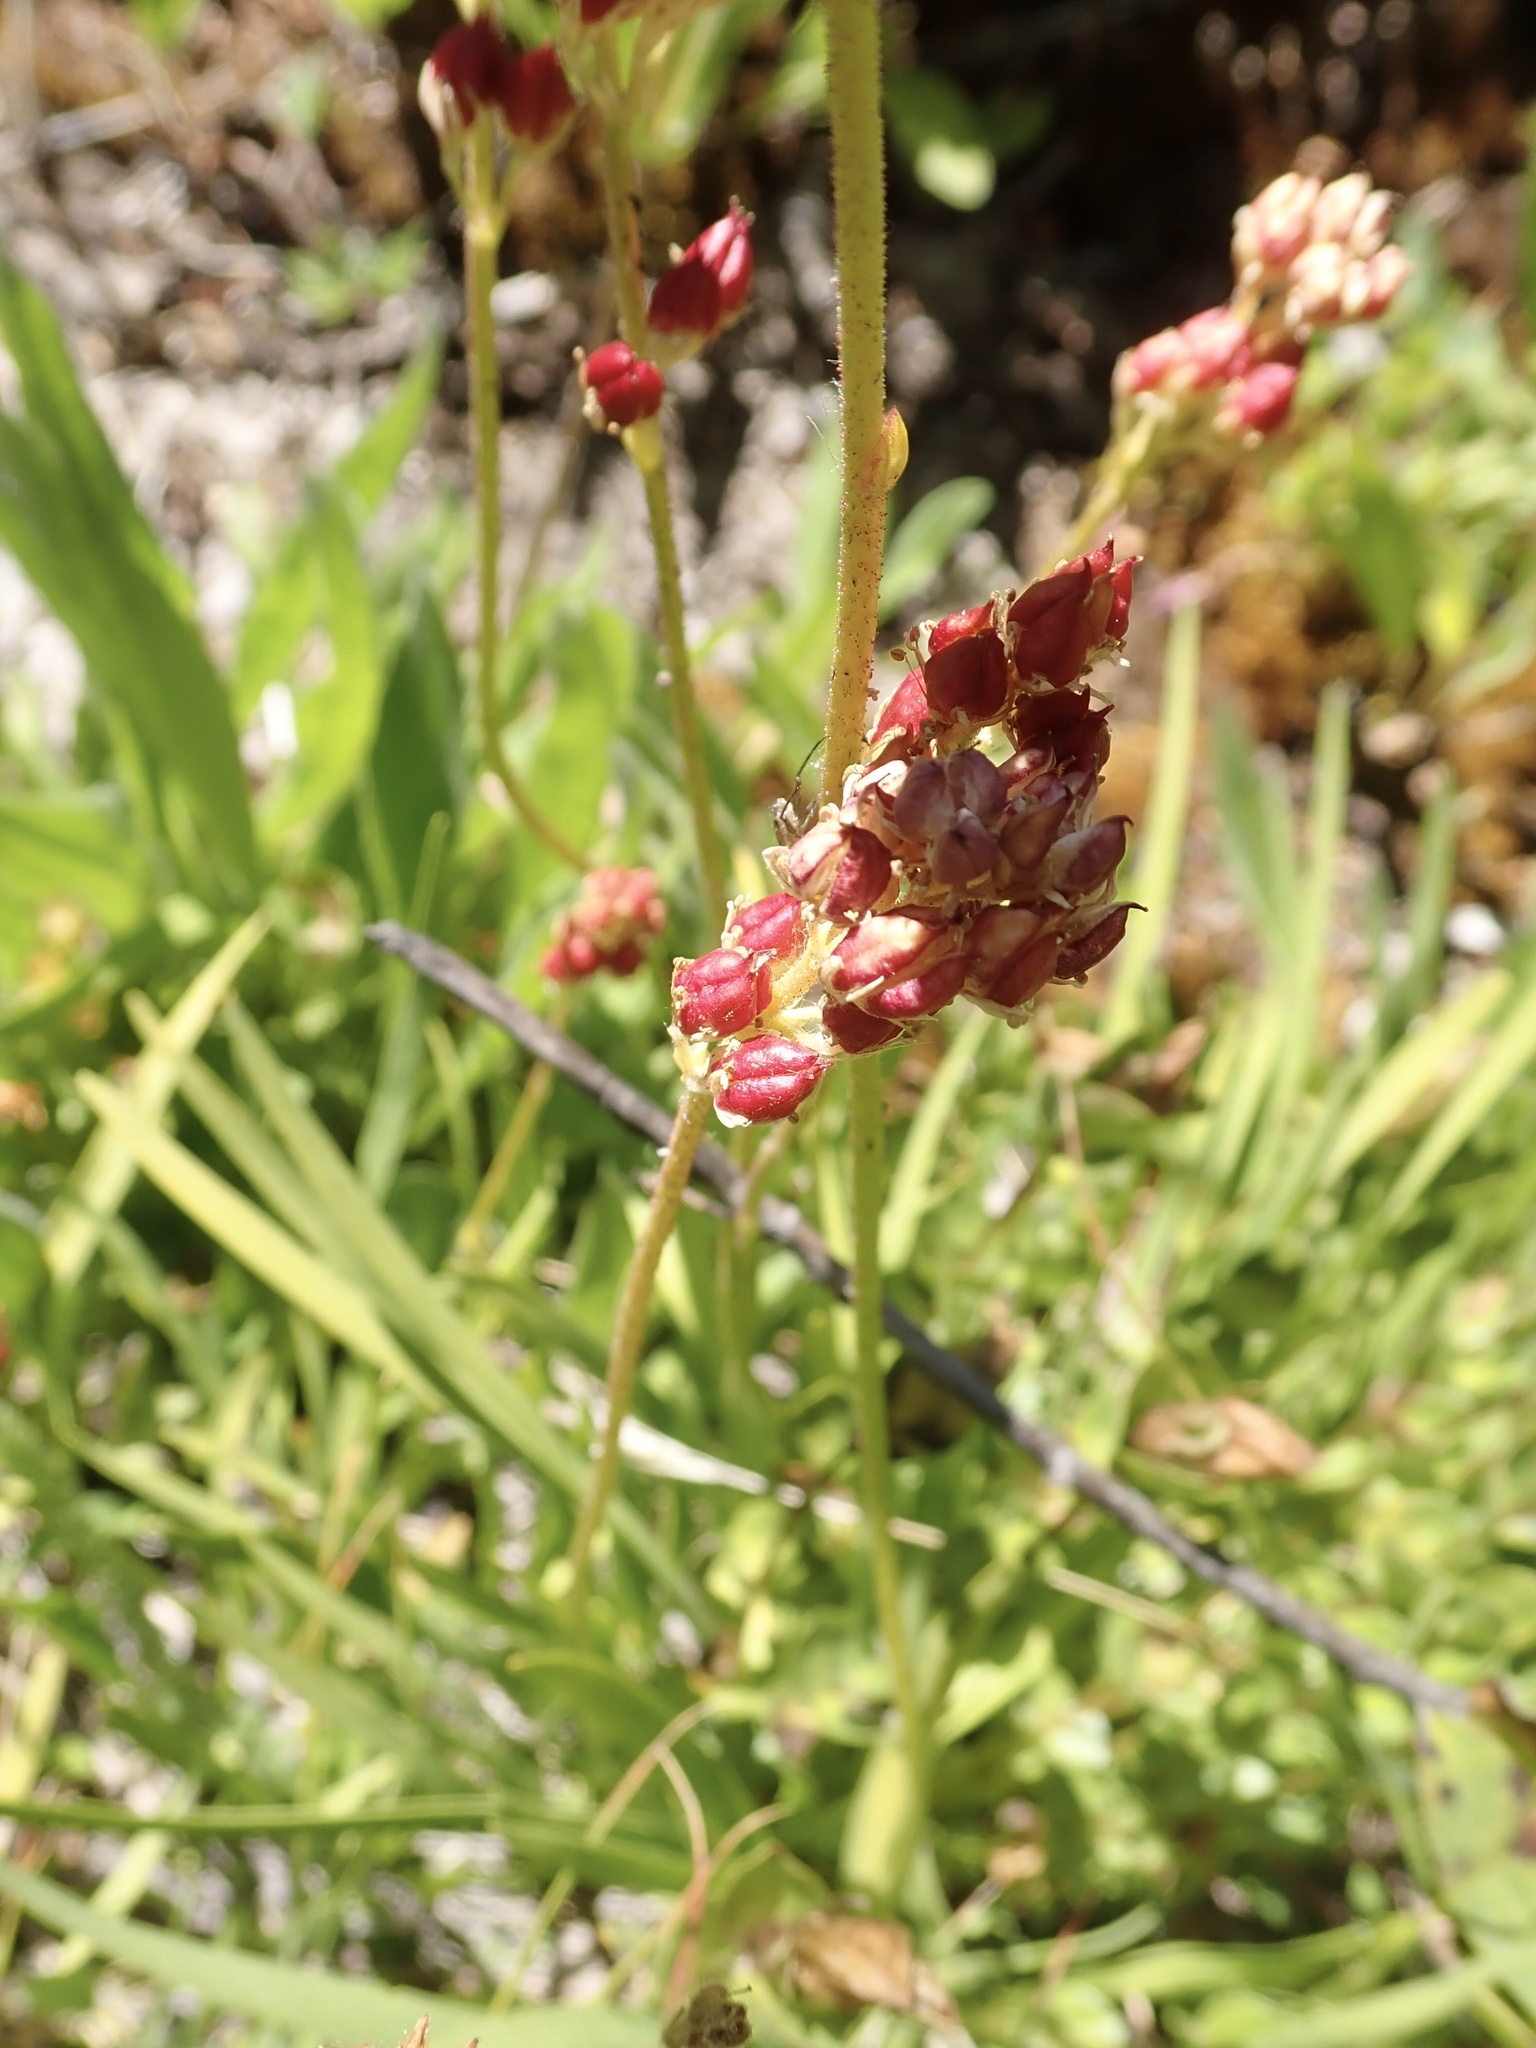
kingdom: Plantae
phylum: Tracheophyta
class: Liliopsida
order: Alismatales
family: Tofieldiaceae
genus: Triantha
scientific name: Triantha occidentalis
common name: Western false asphodel
